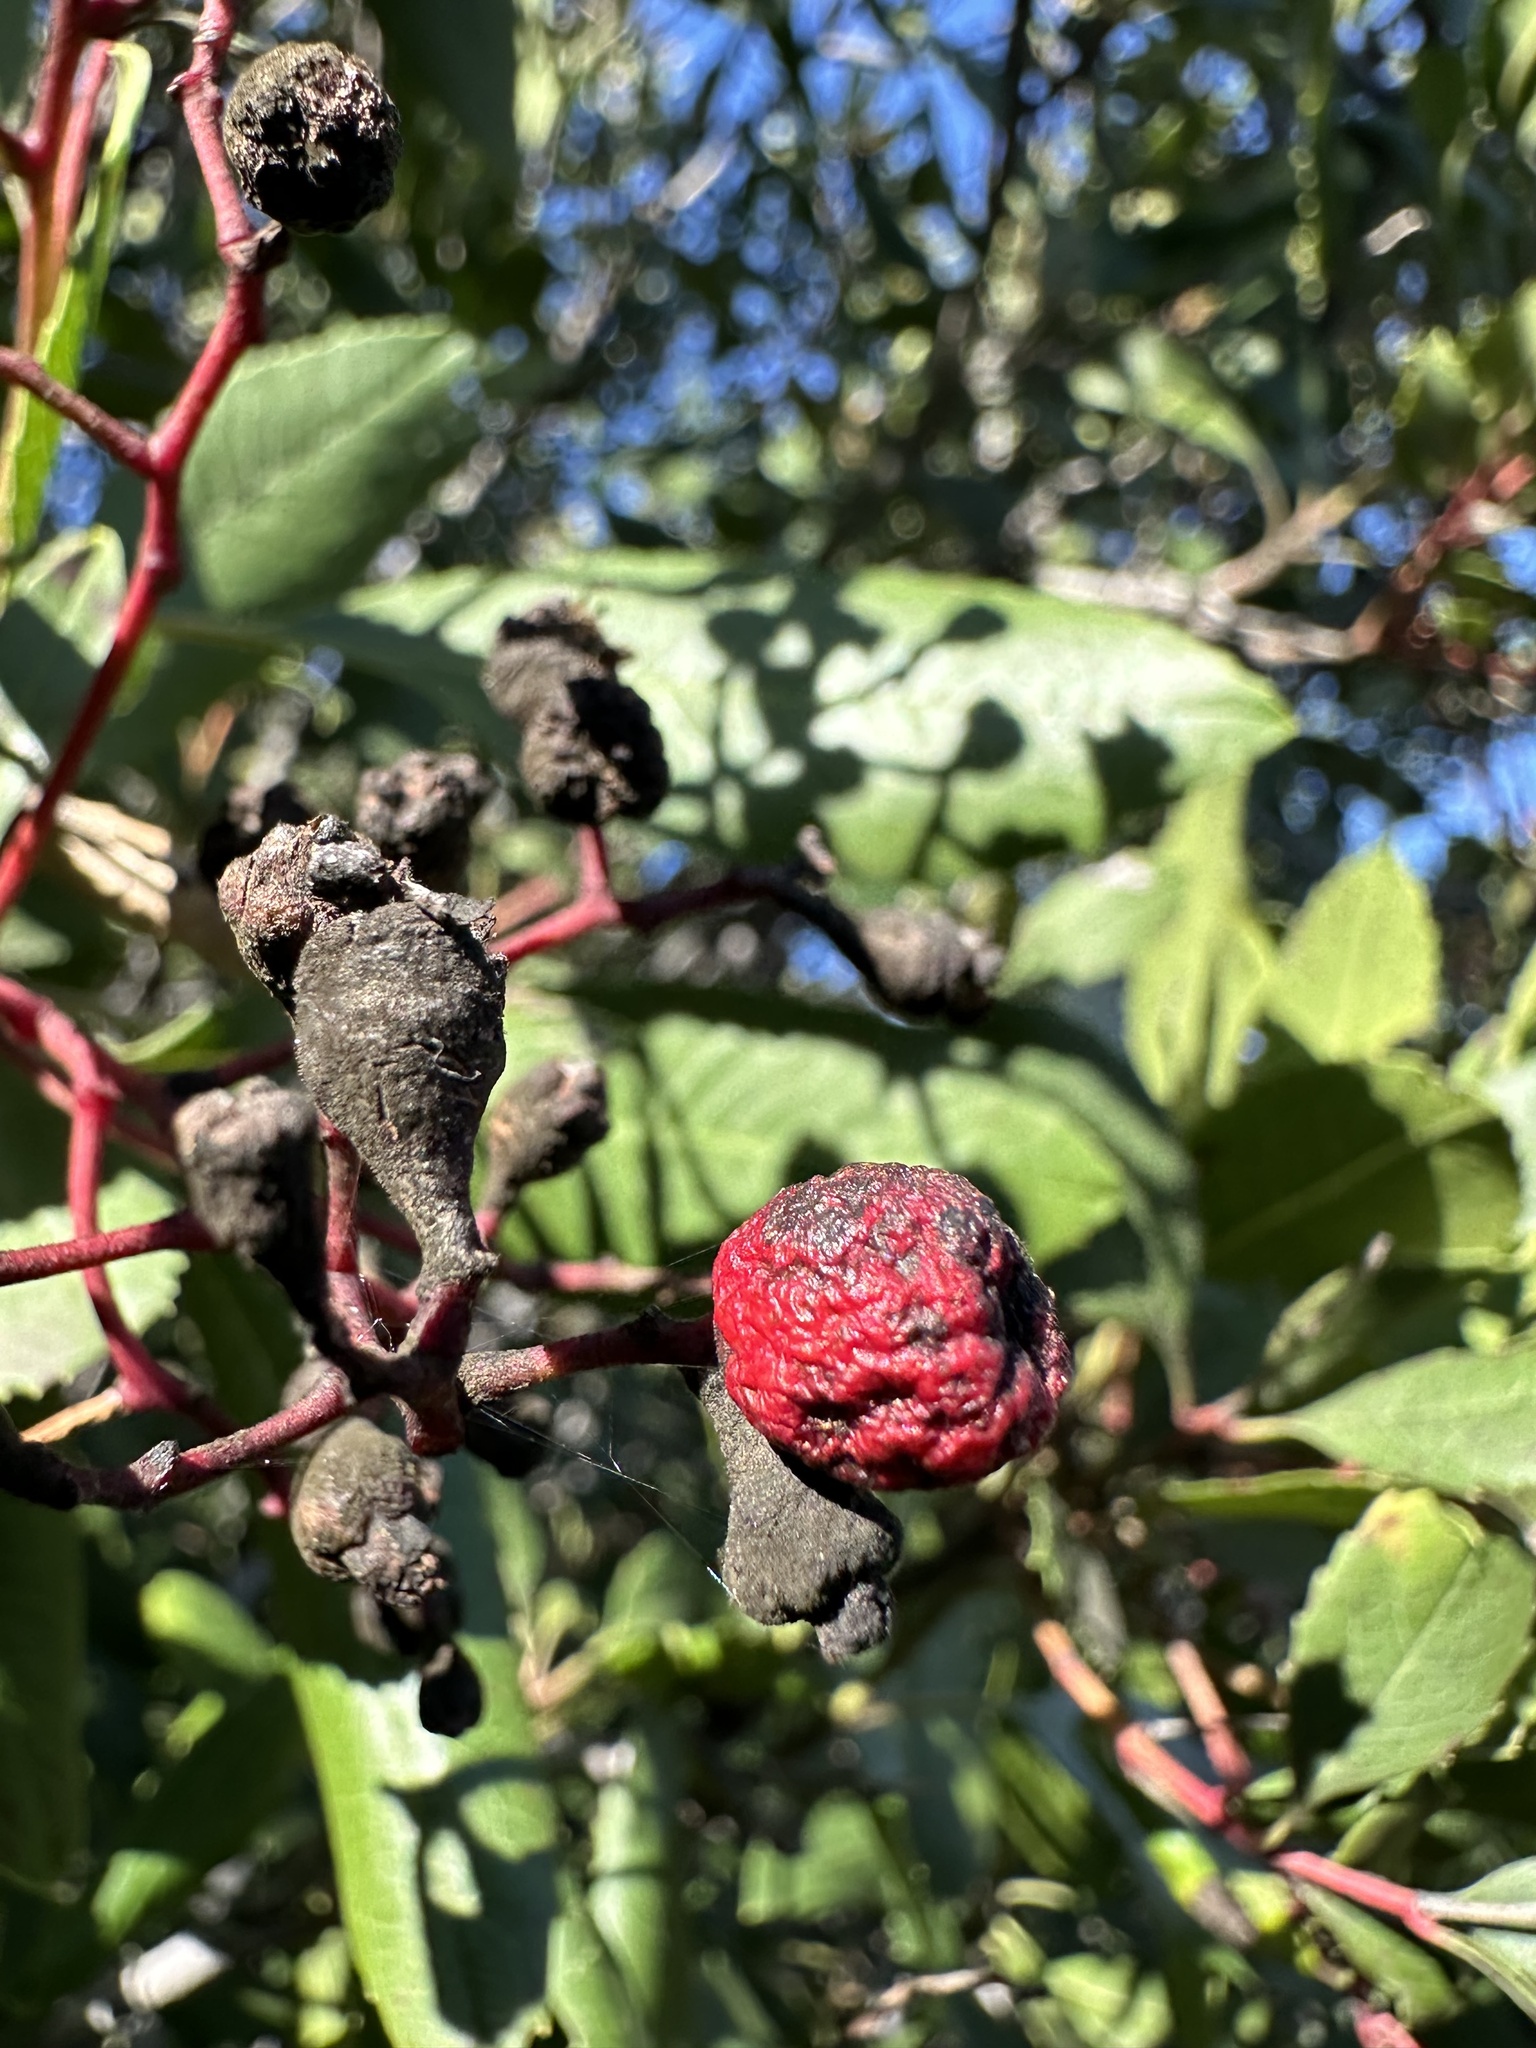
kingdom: Plantae
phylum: Tracheophyta
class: Magnoliopsida
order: Rosales
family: Rosaceae
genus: Heteromeles
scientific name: Heteromeles arbutifolia
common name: California-holly
